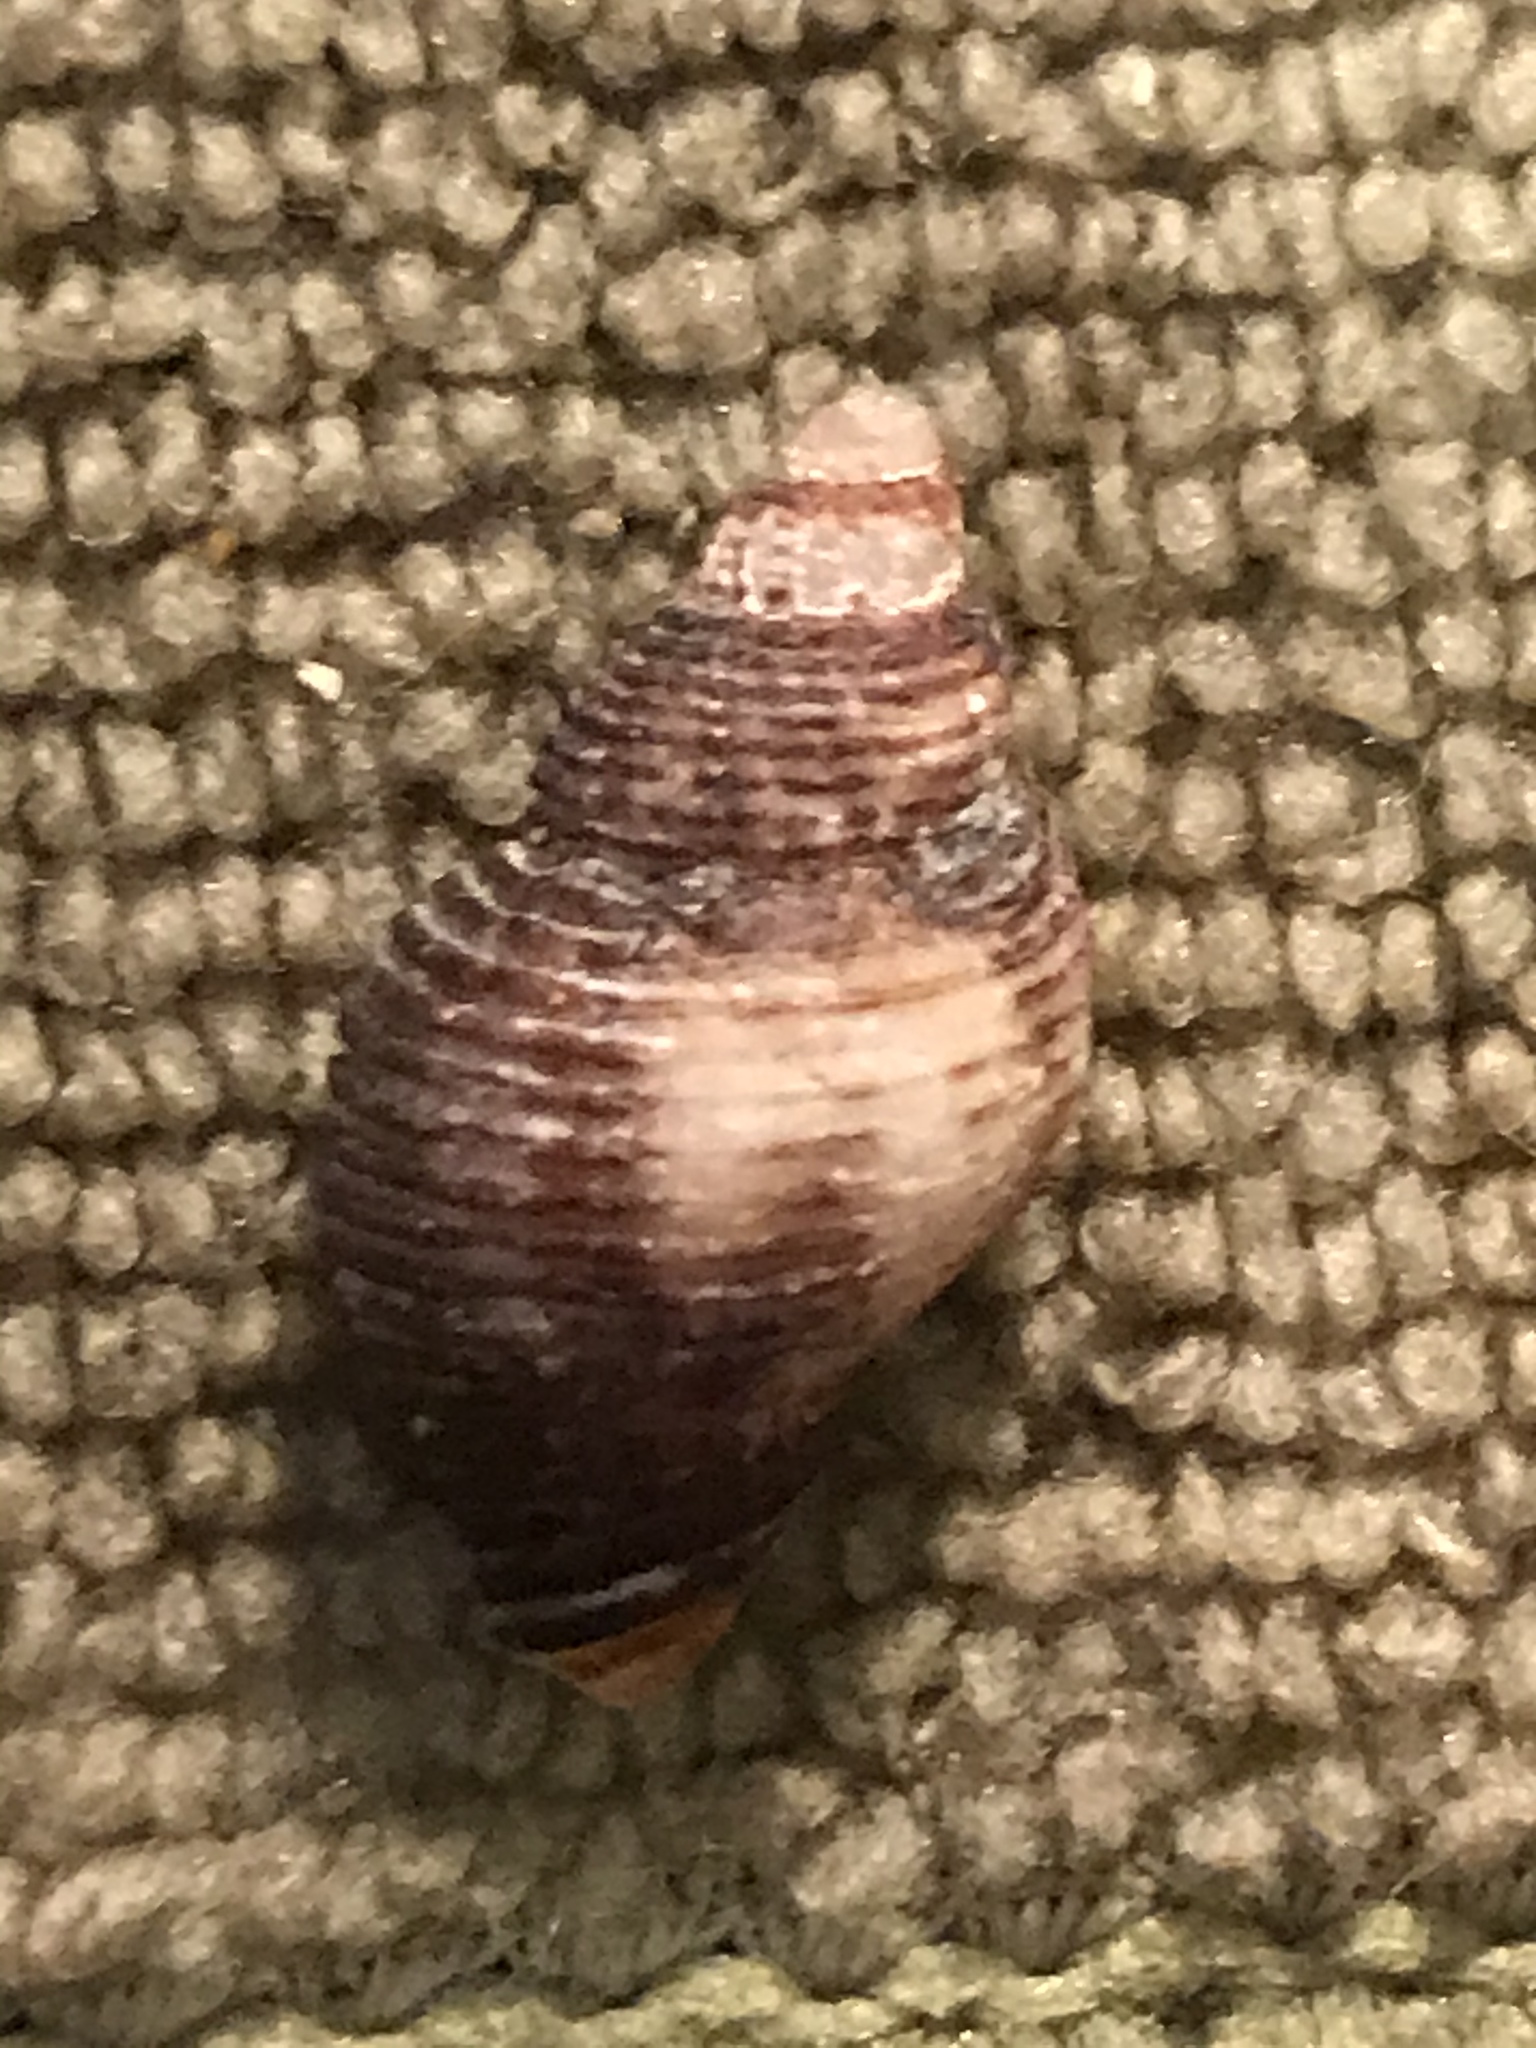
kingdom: Animalia
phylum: Mollusca
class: Gastropoda
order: Neogastropoda
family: Muricidae
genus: Paciocinebrina
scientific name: Paciocinebrina lurida
